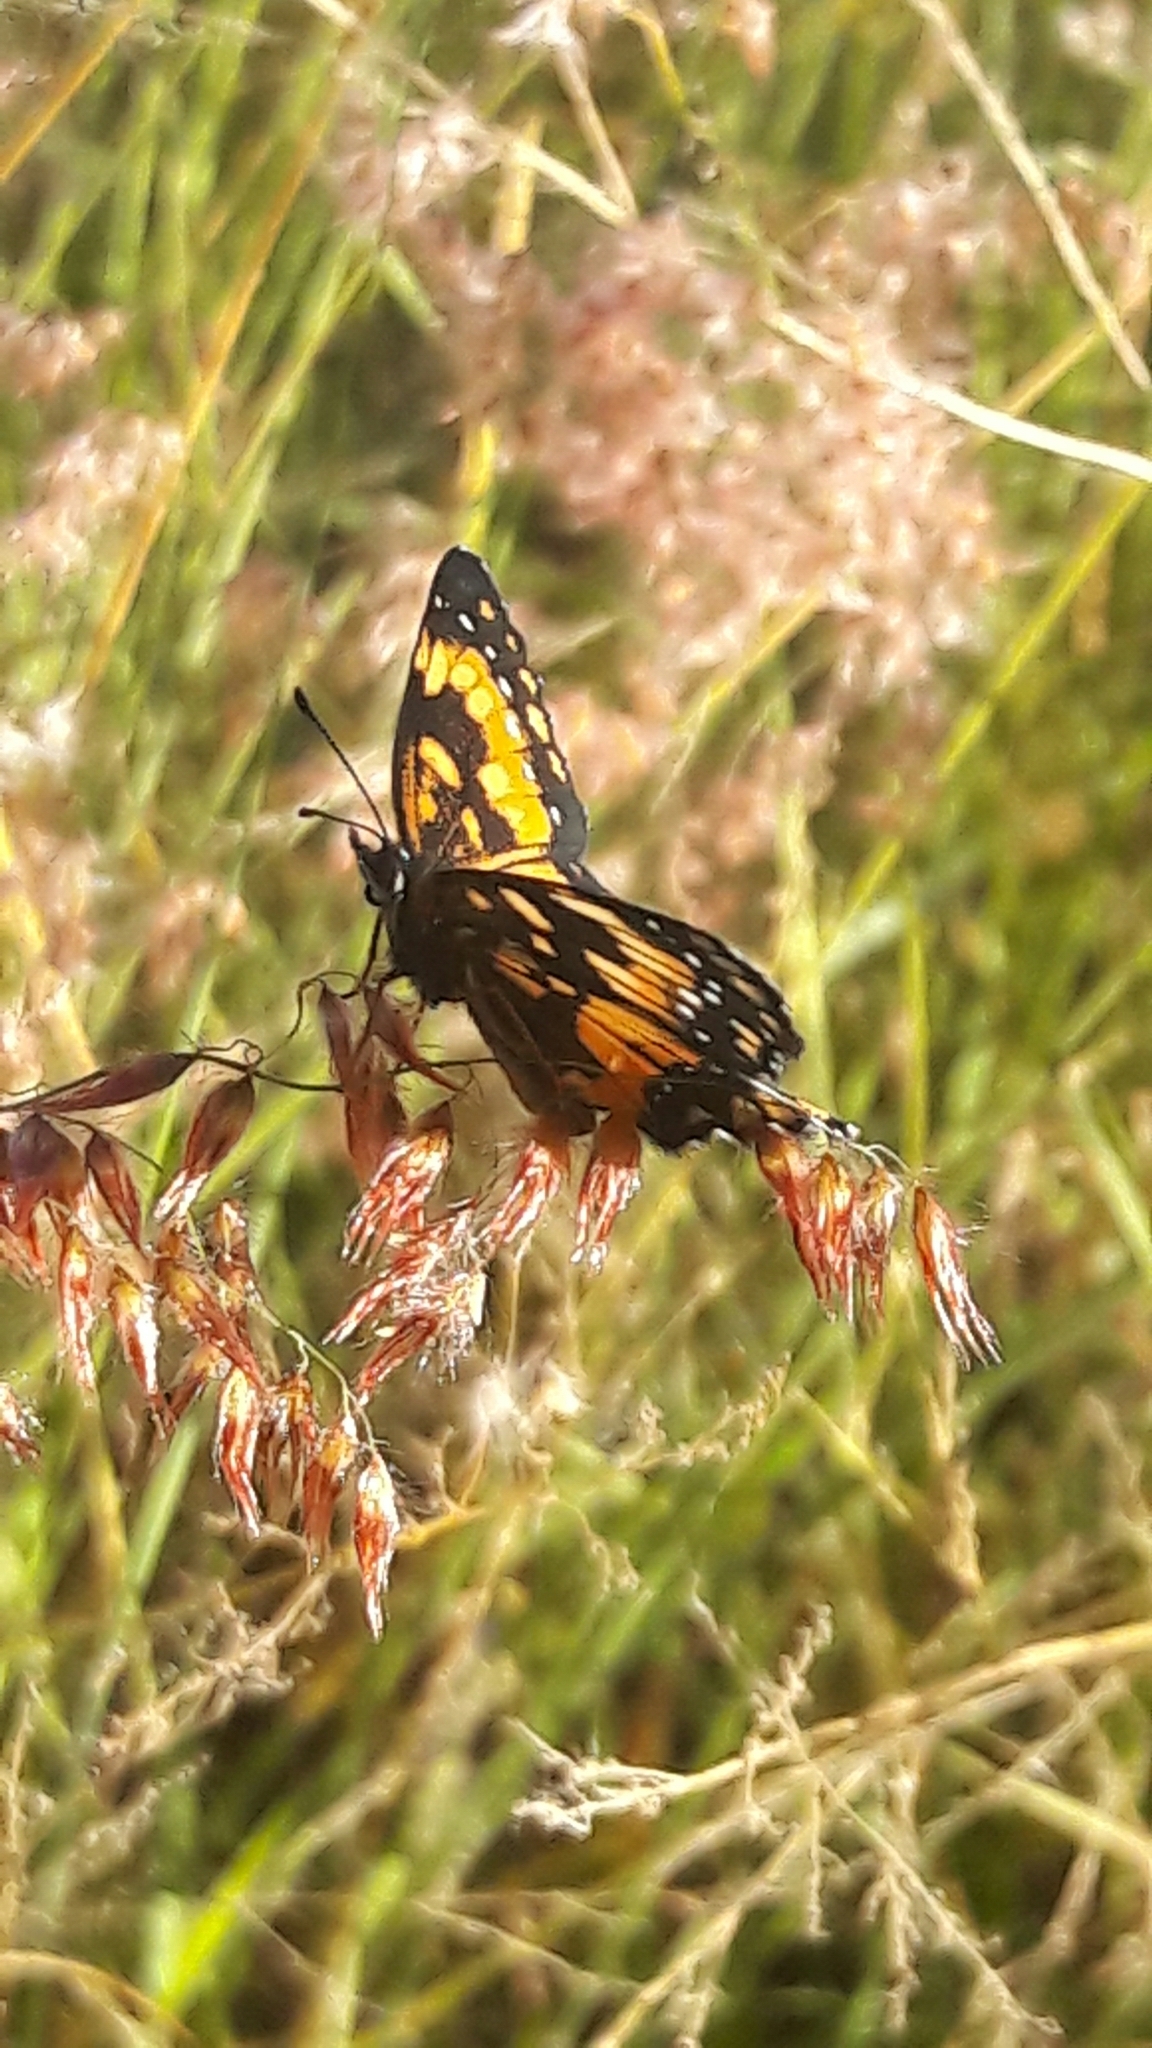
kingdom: Animalia
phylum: Arthropoda
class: Insecta
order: Lepidoptera
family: Nymphalidae
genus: Chlosyne
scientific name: Chlosyne lacinia
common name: Bordered patch
